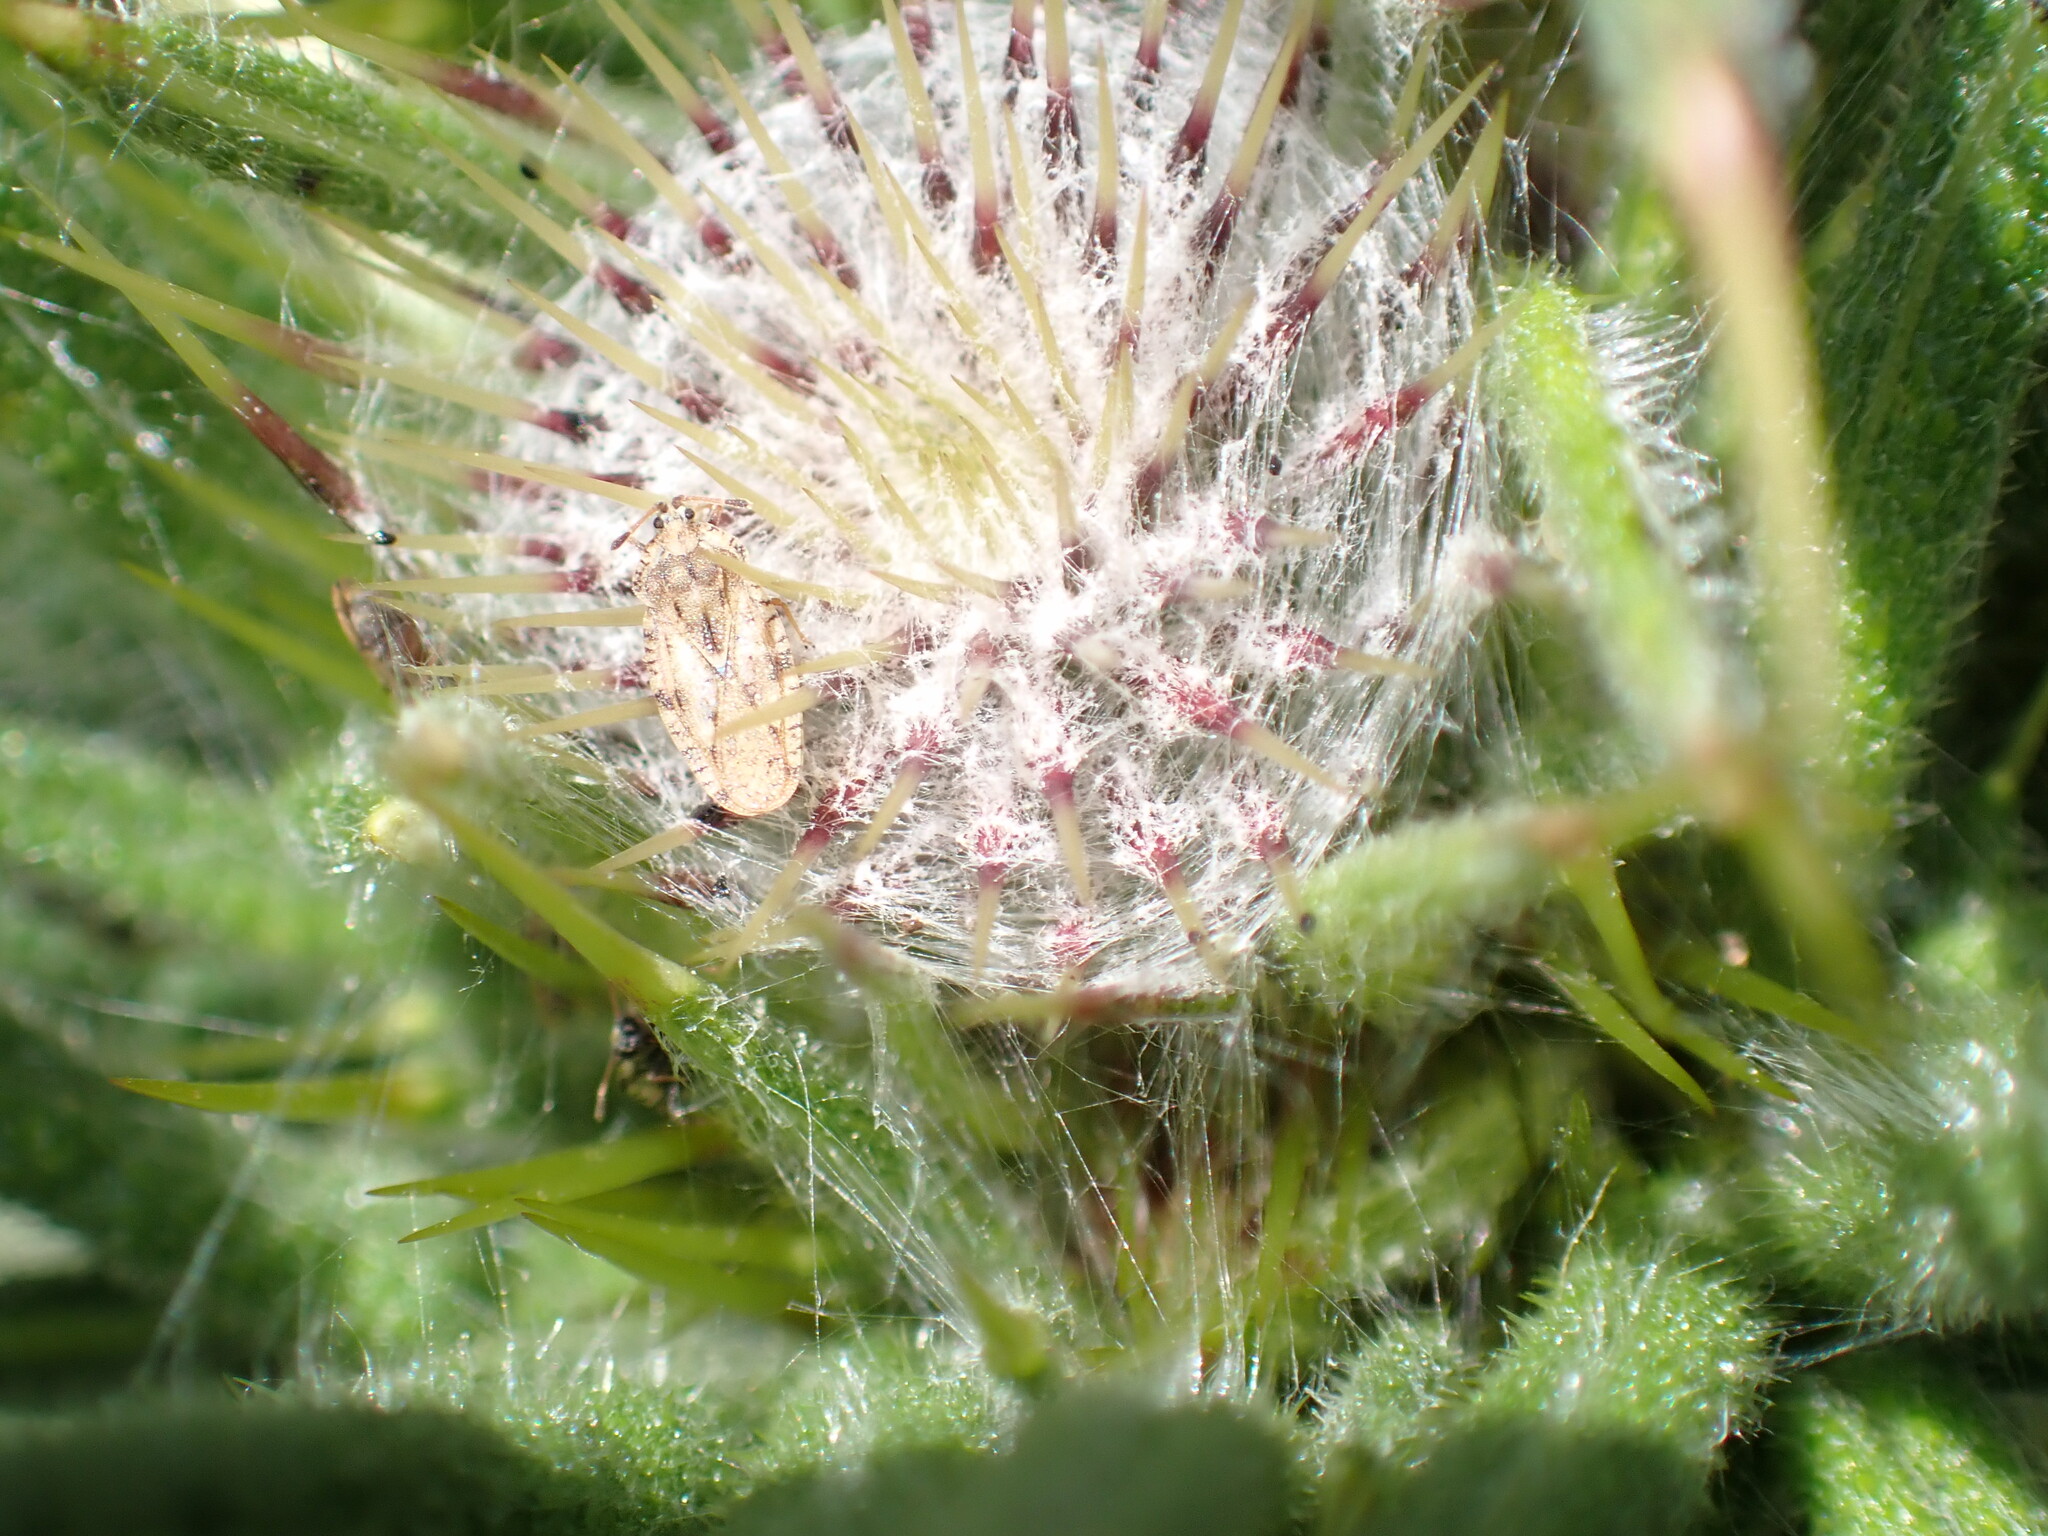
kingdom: Animalia
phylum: Arthropoda
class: Insecta
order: Hemiptera
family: Tingidae
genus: Tingis
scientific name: Tingis cardui
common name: Spear thistle lacebug
